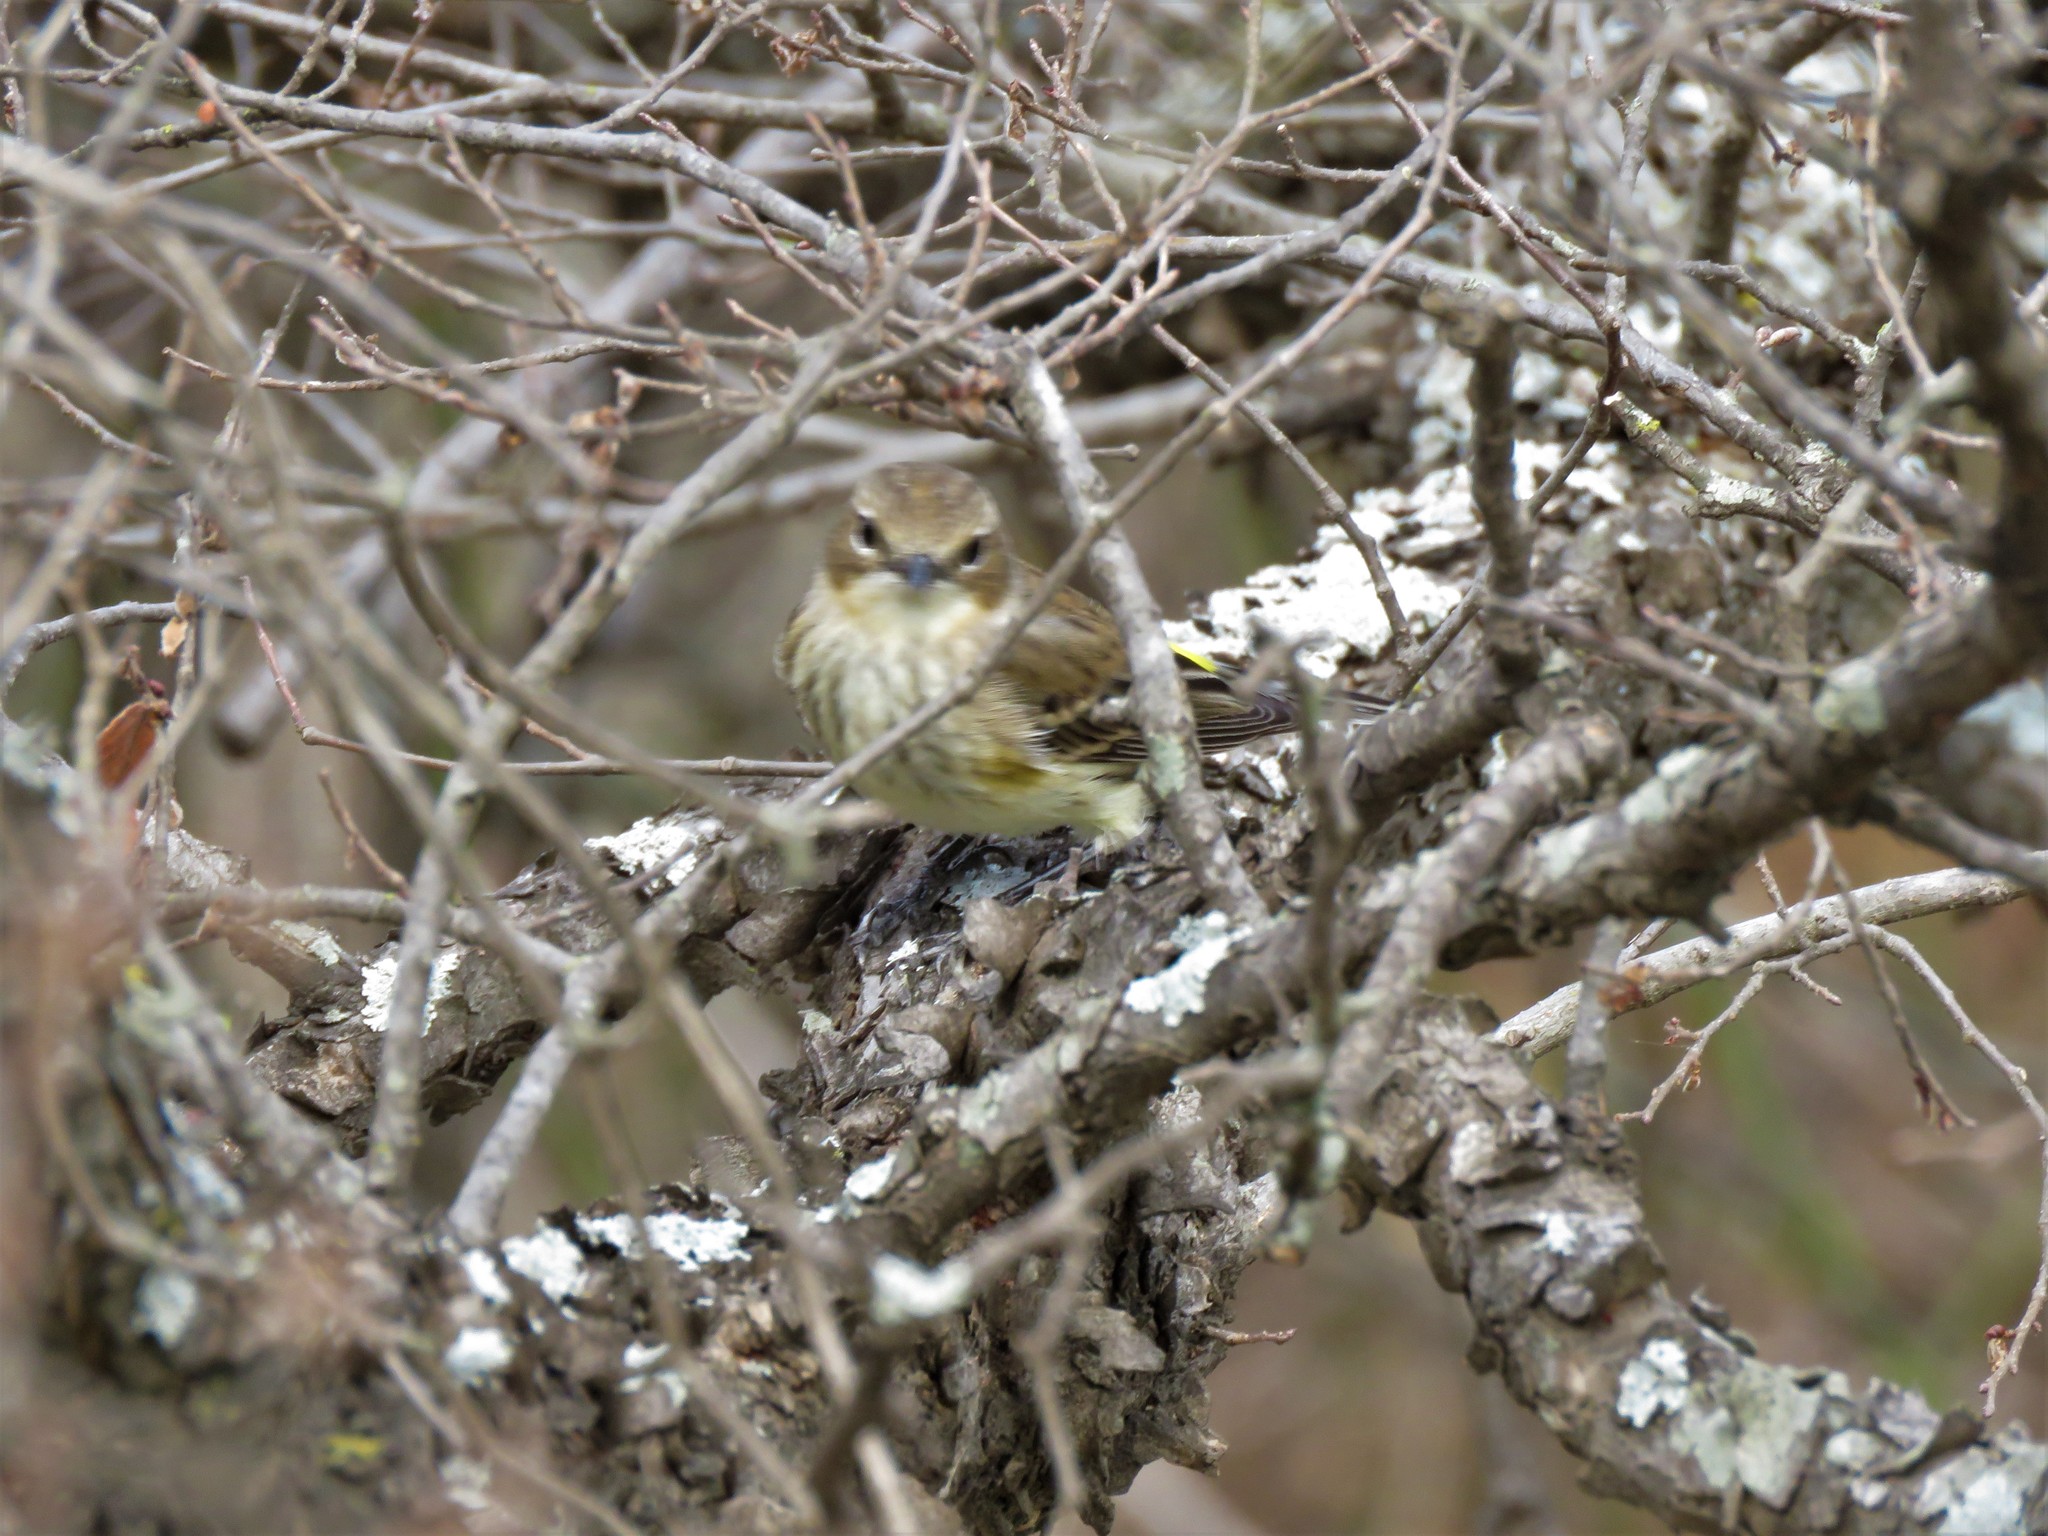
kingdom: Animalia
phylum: Chordata
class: Aves
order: Passeriformes
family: Parulidae
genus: Setophaga
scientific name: Setophaga coronata
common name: Myrtle warbler
